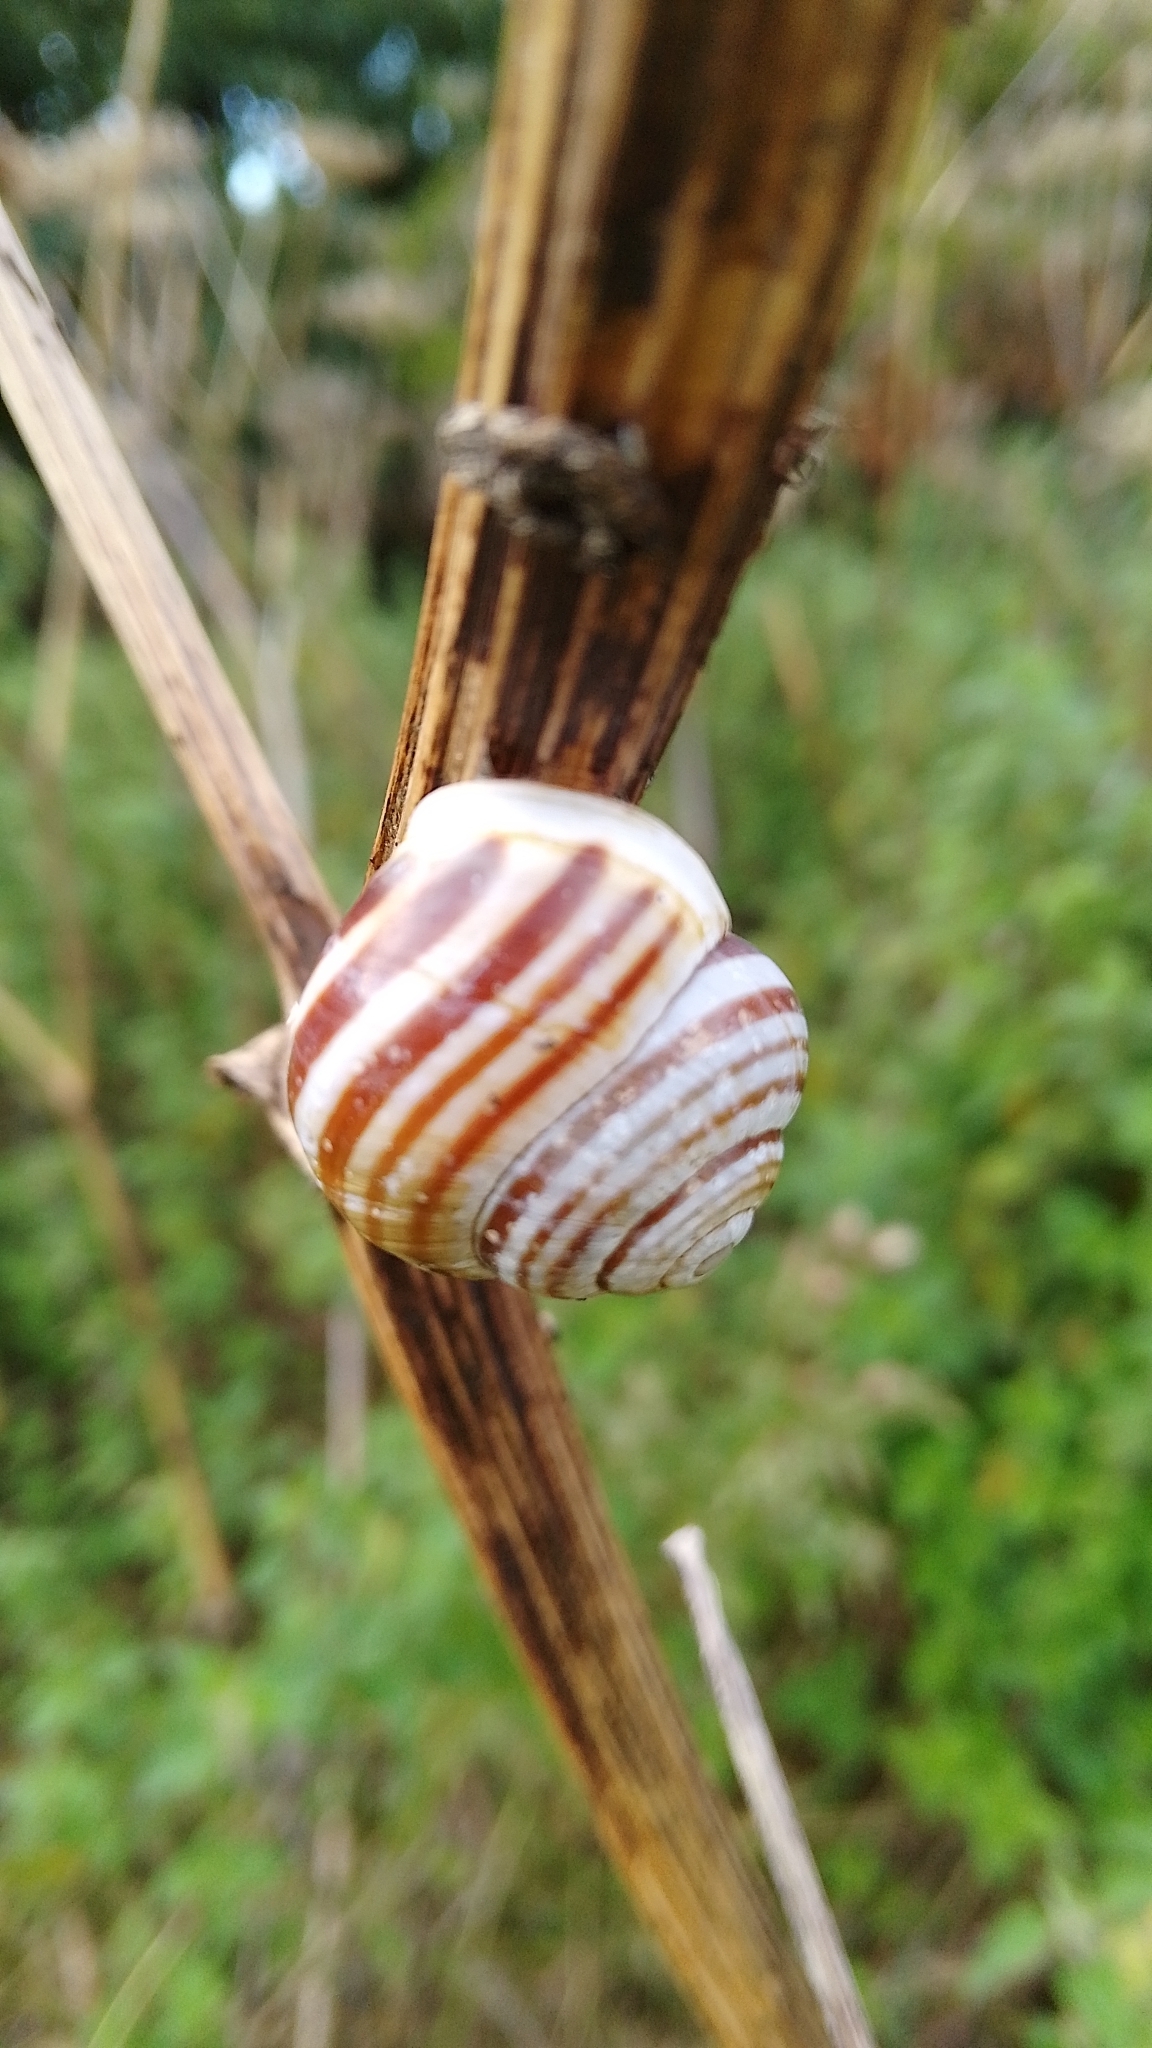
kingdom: Animalia
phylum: Mollusca
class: Gastropoda
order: Stylommatophora
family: Helicidae
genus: Cepaea
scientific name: Cepaea hortensis
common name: White-lip gardensnail
